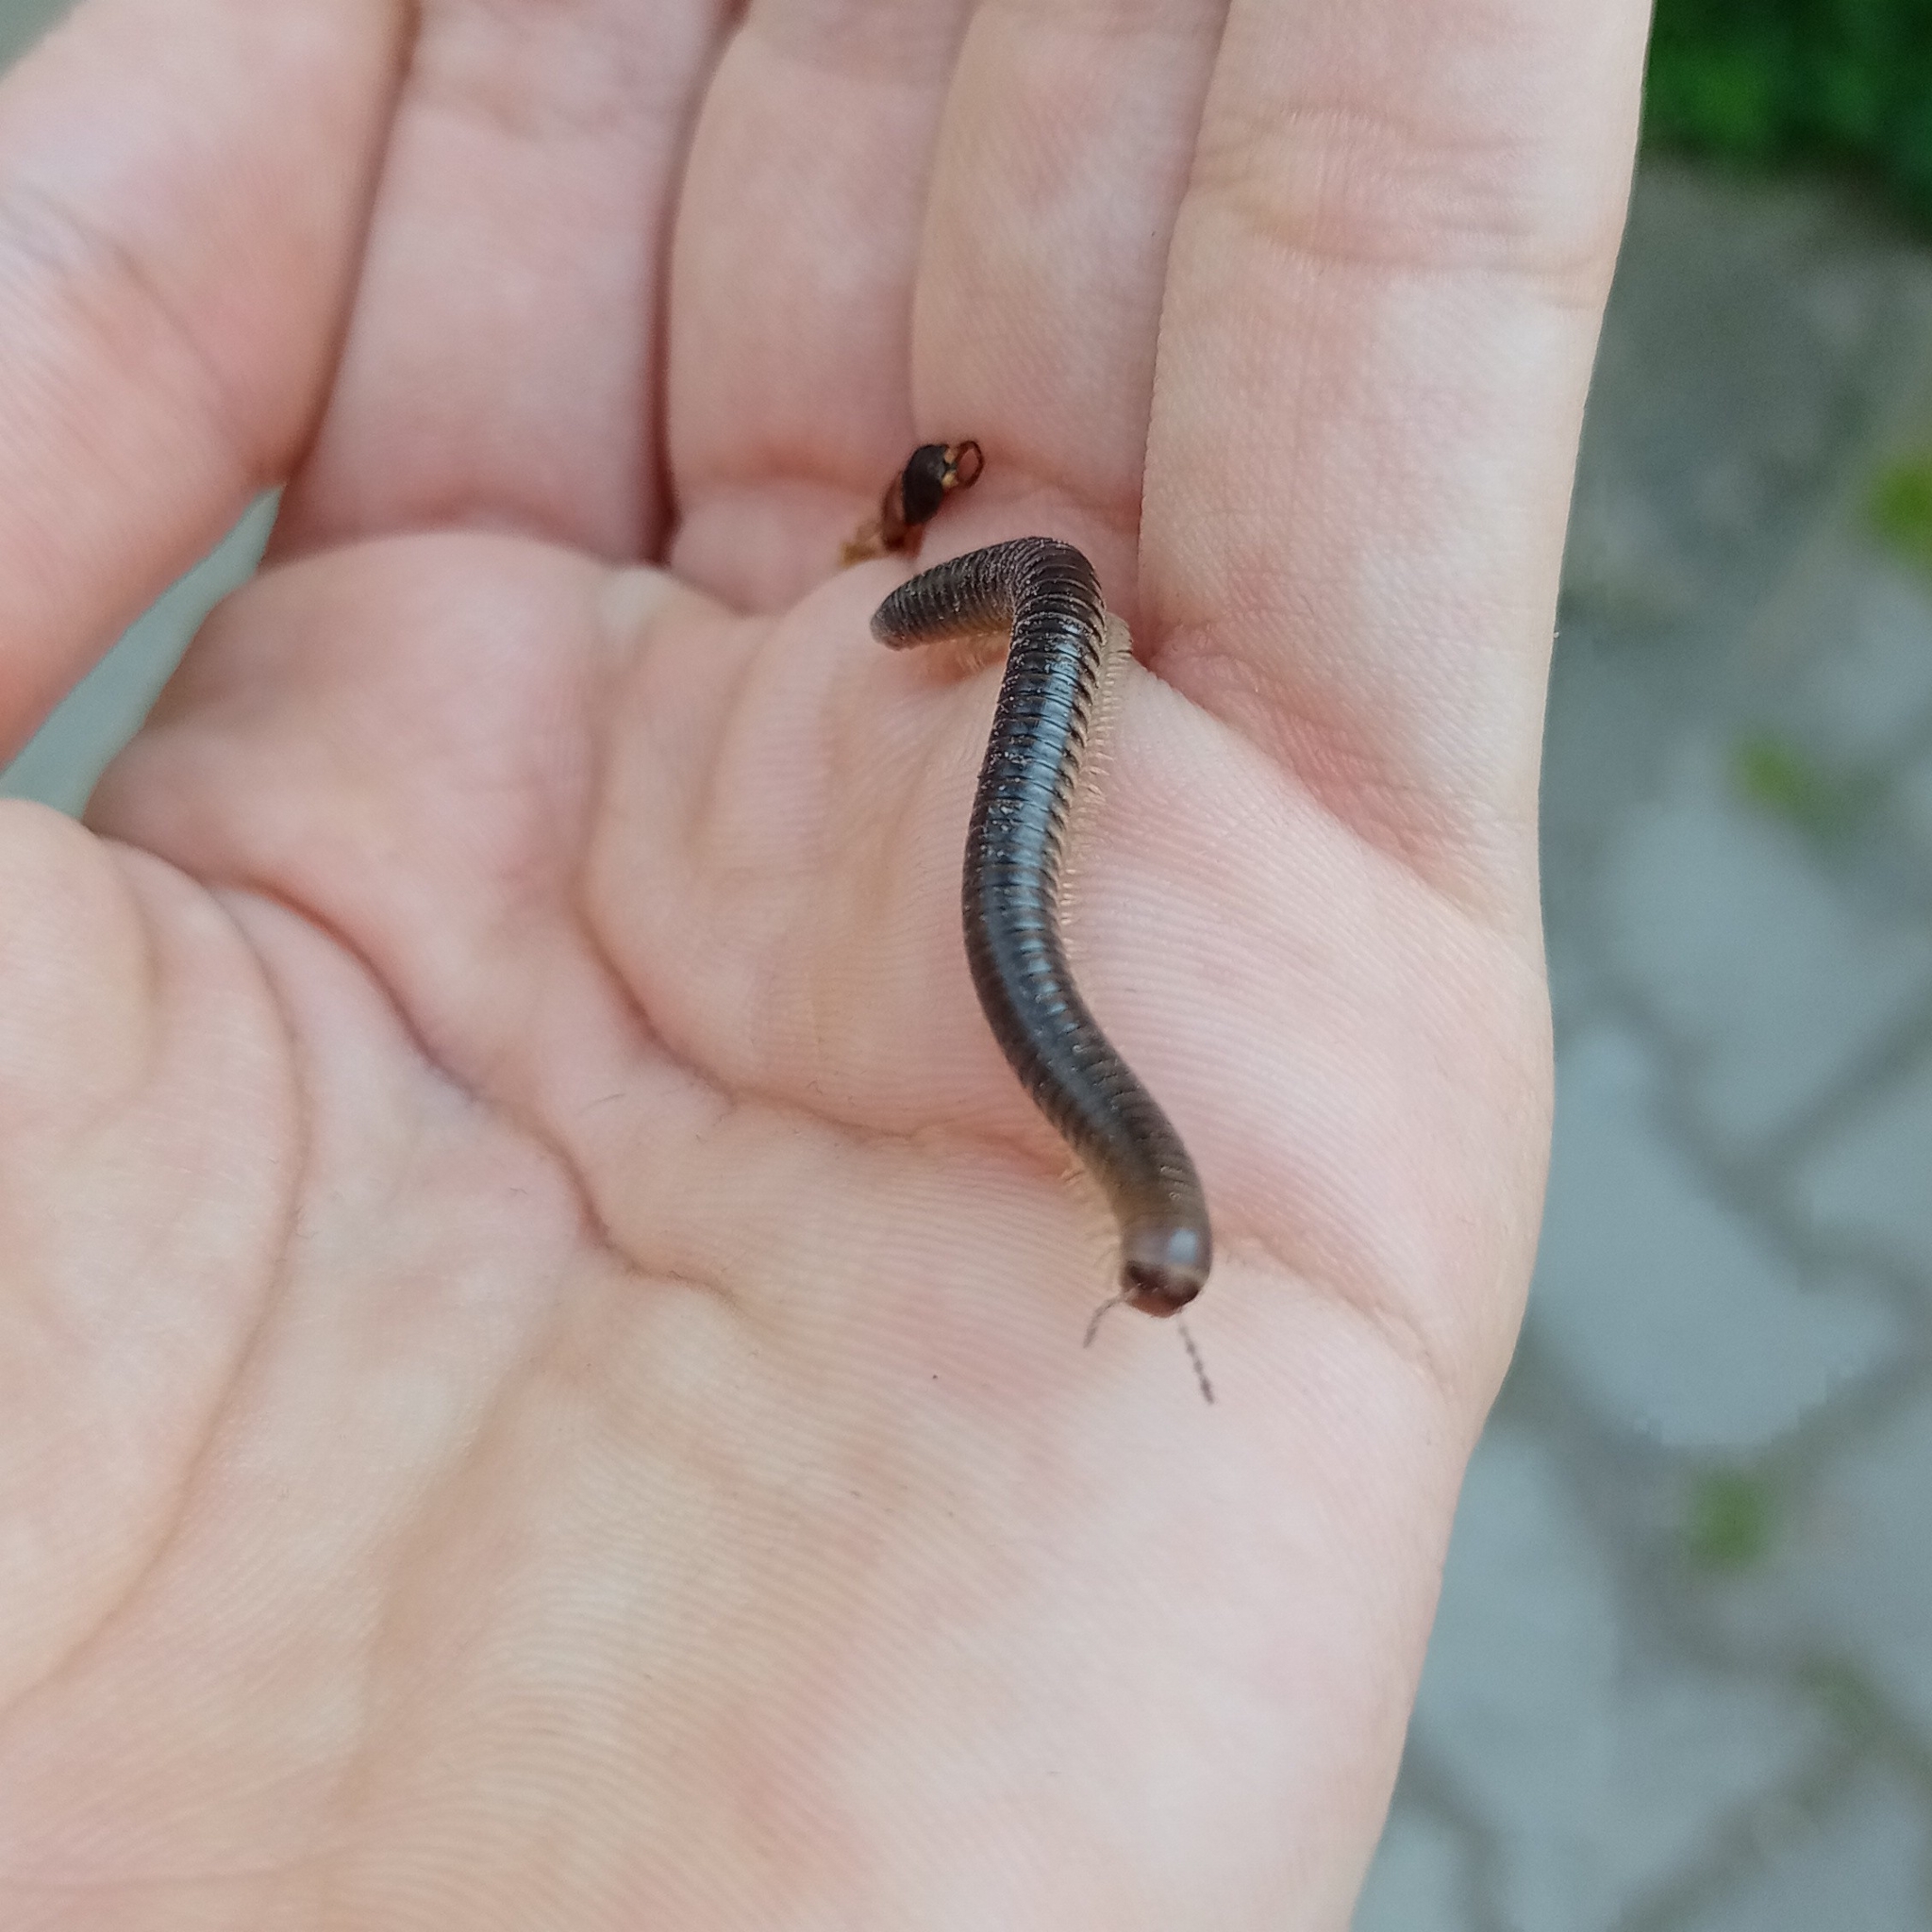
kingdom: Animalia
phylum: Arthropoda
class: Diplopoda
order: Julida
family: Julidae
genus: Pachyiulus
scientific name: Pachyiulus flavipes
